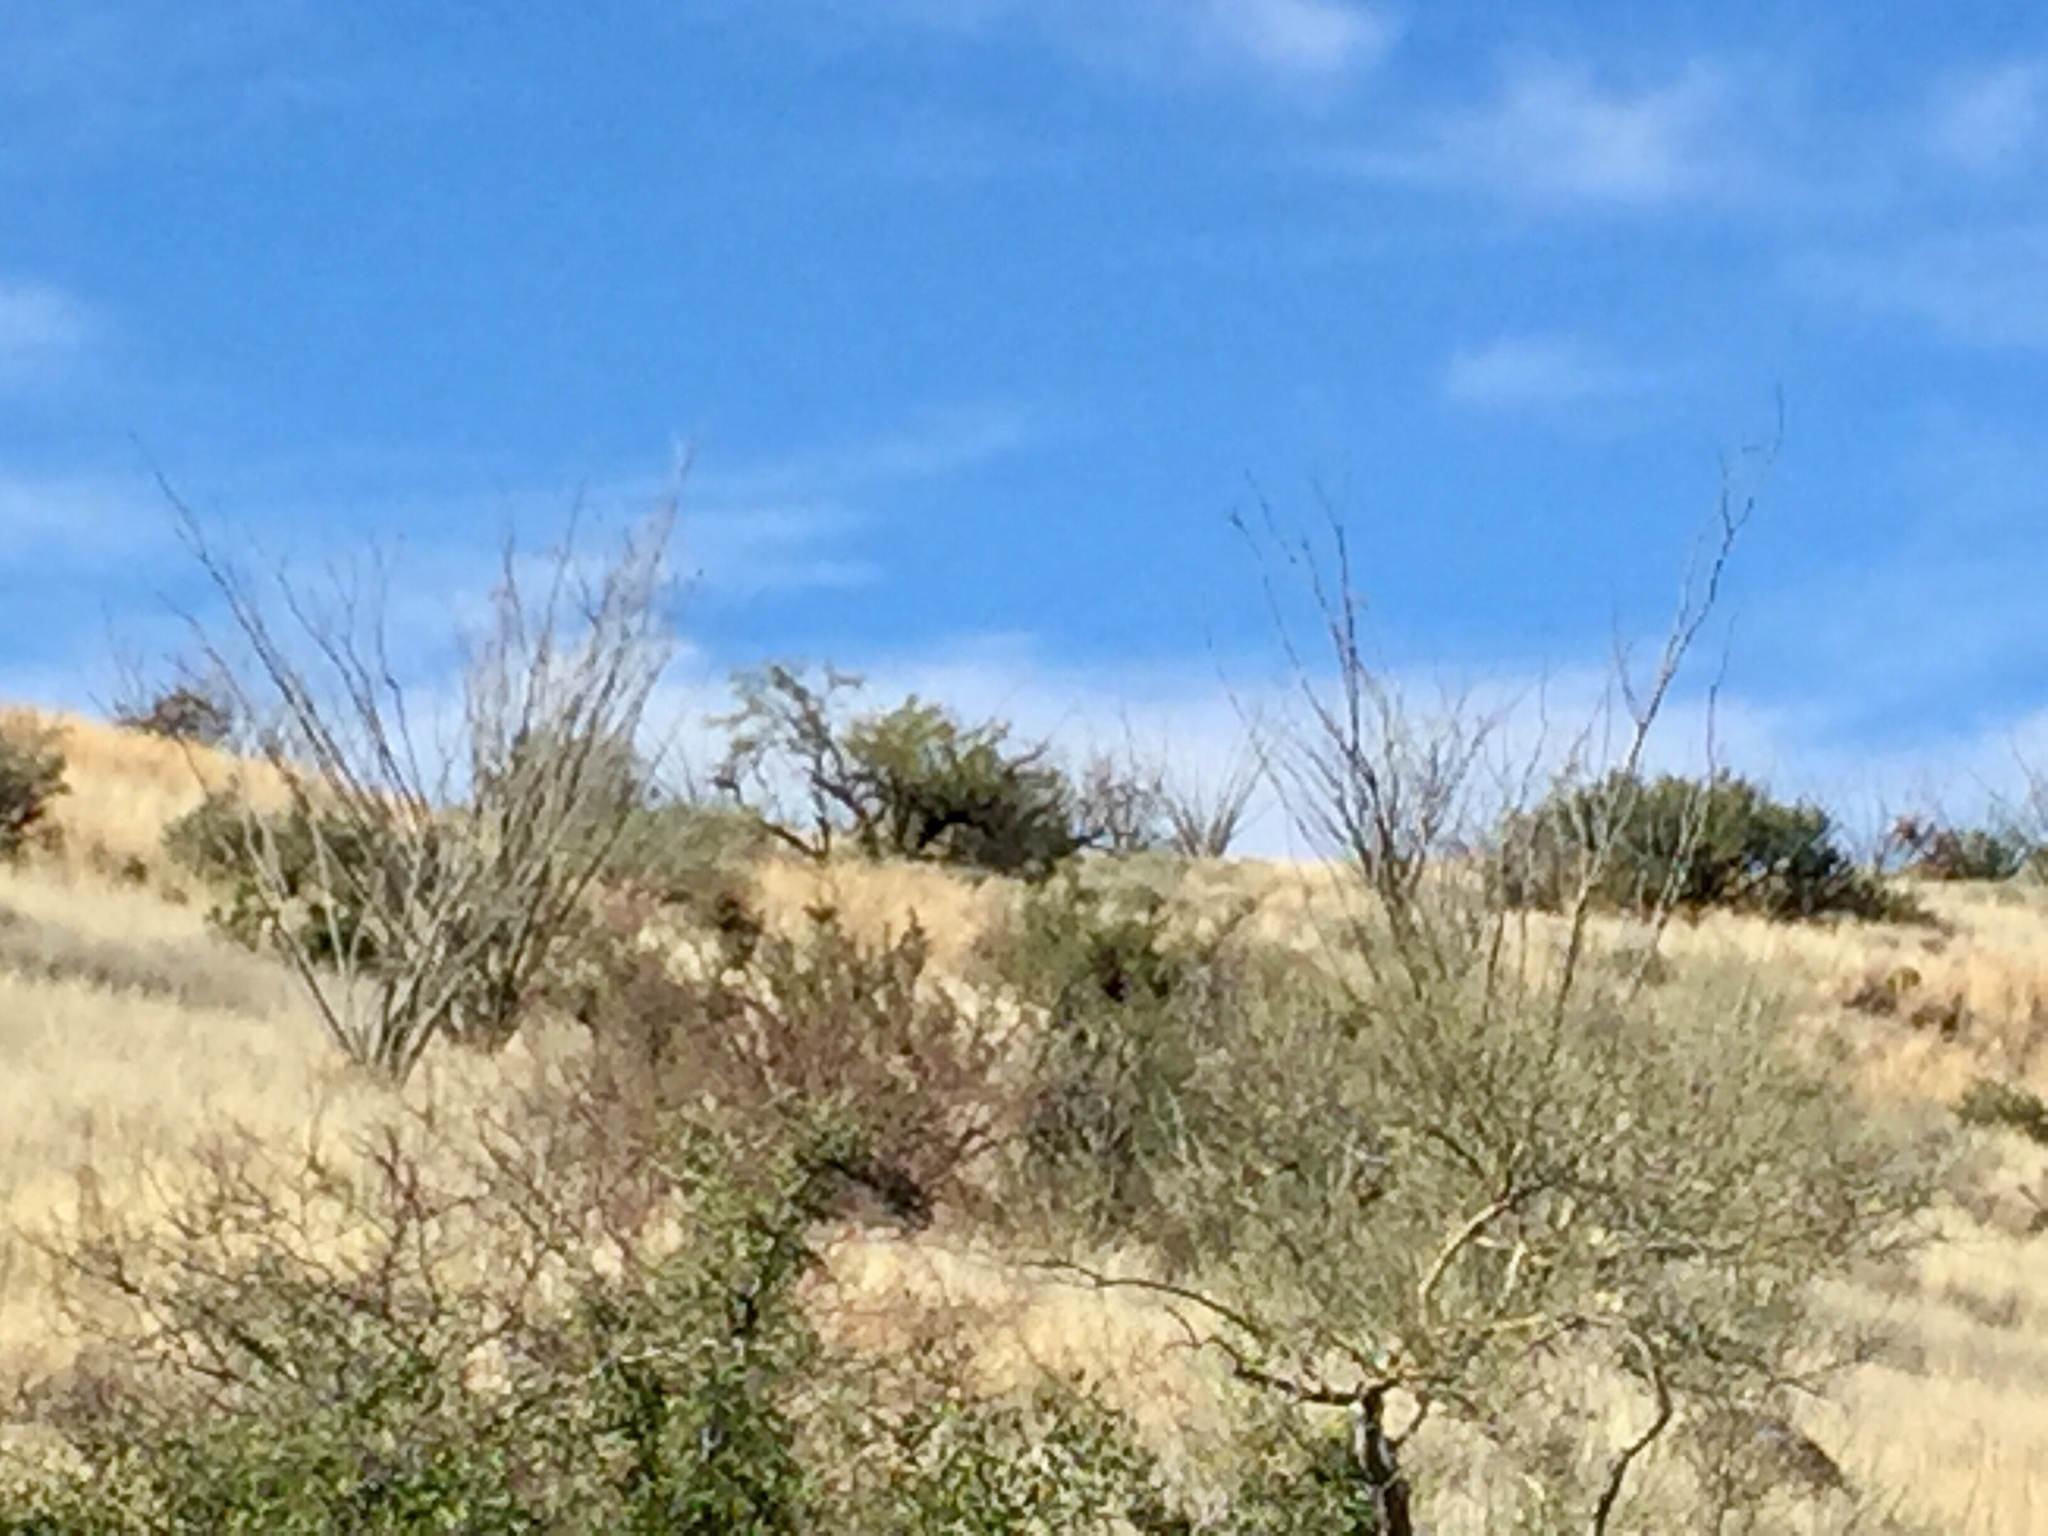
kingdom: Plantae
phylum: Tracheophyta
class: Magnoliopsida
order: Ericales
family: Fouquieriaceae
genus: Fouquieria
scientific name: Fouquieria splendens
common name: Vine-cactus
